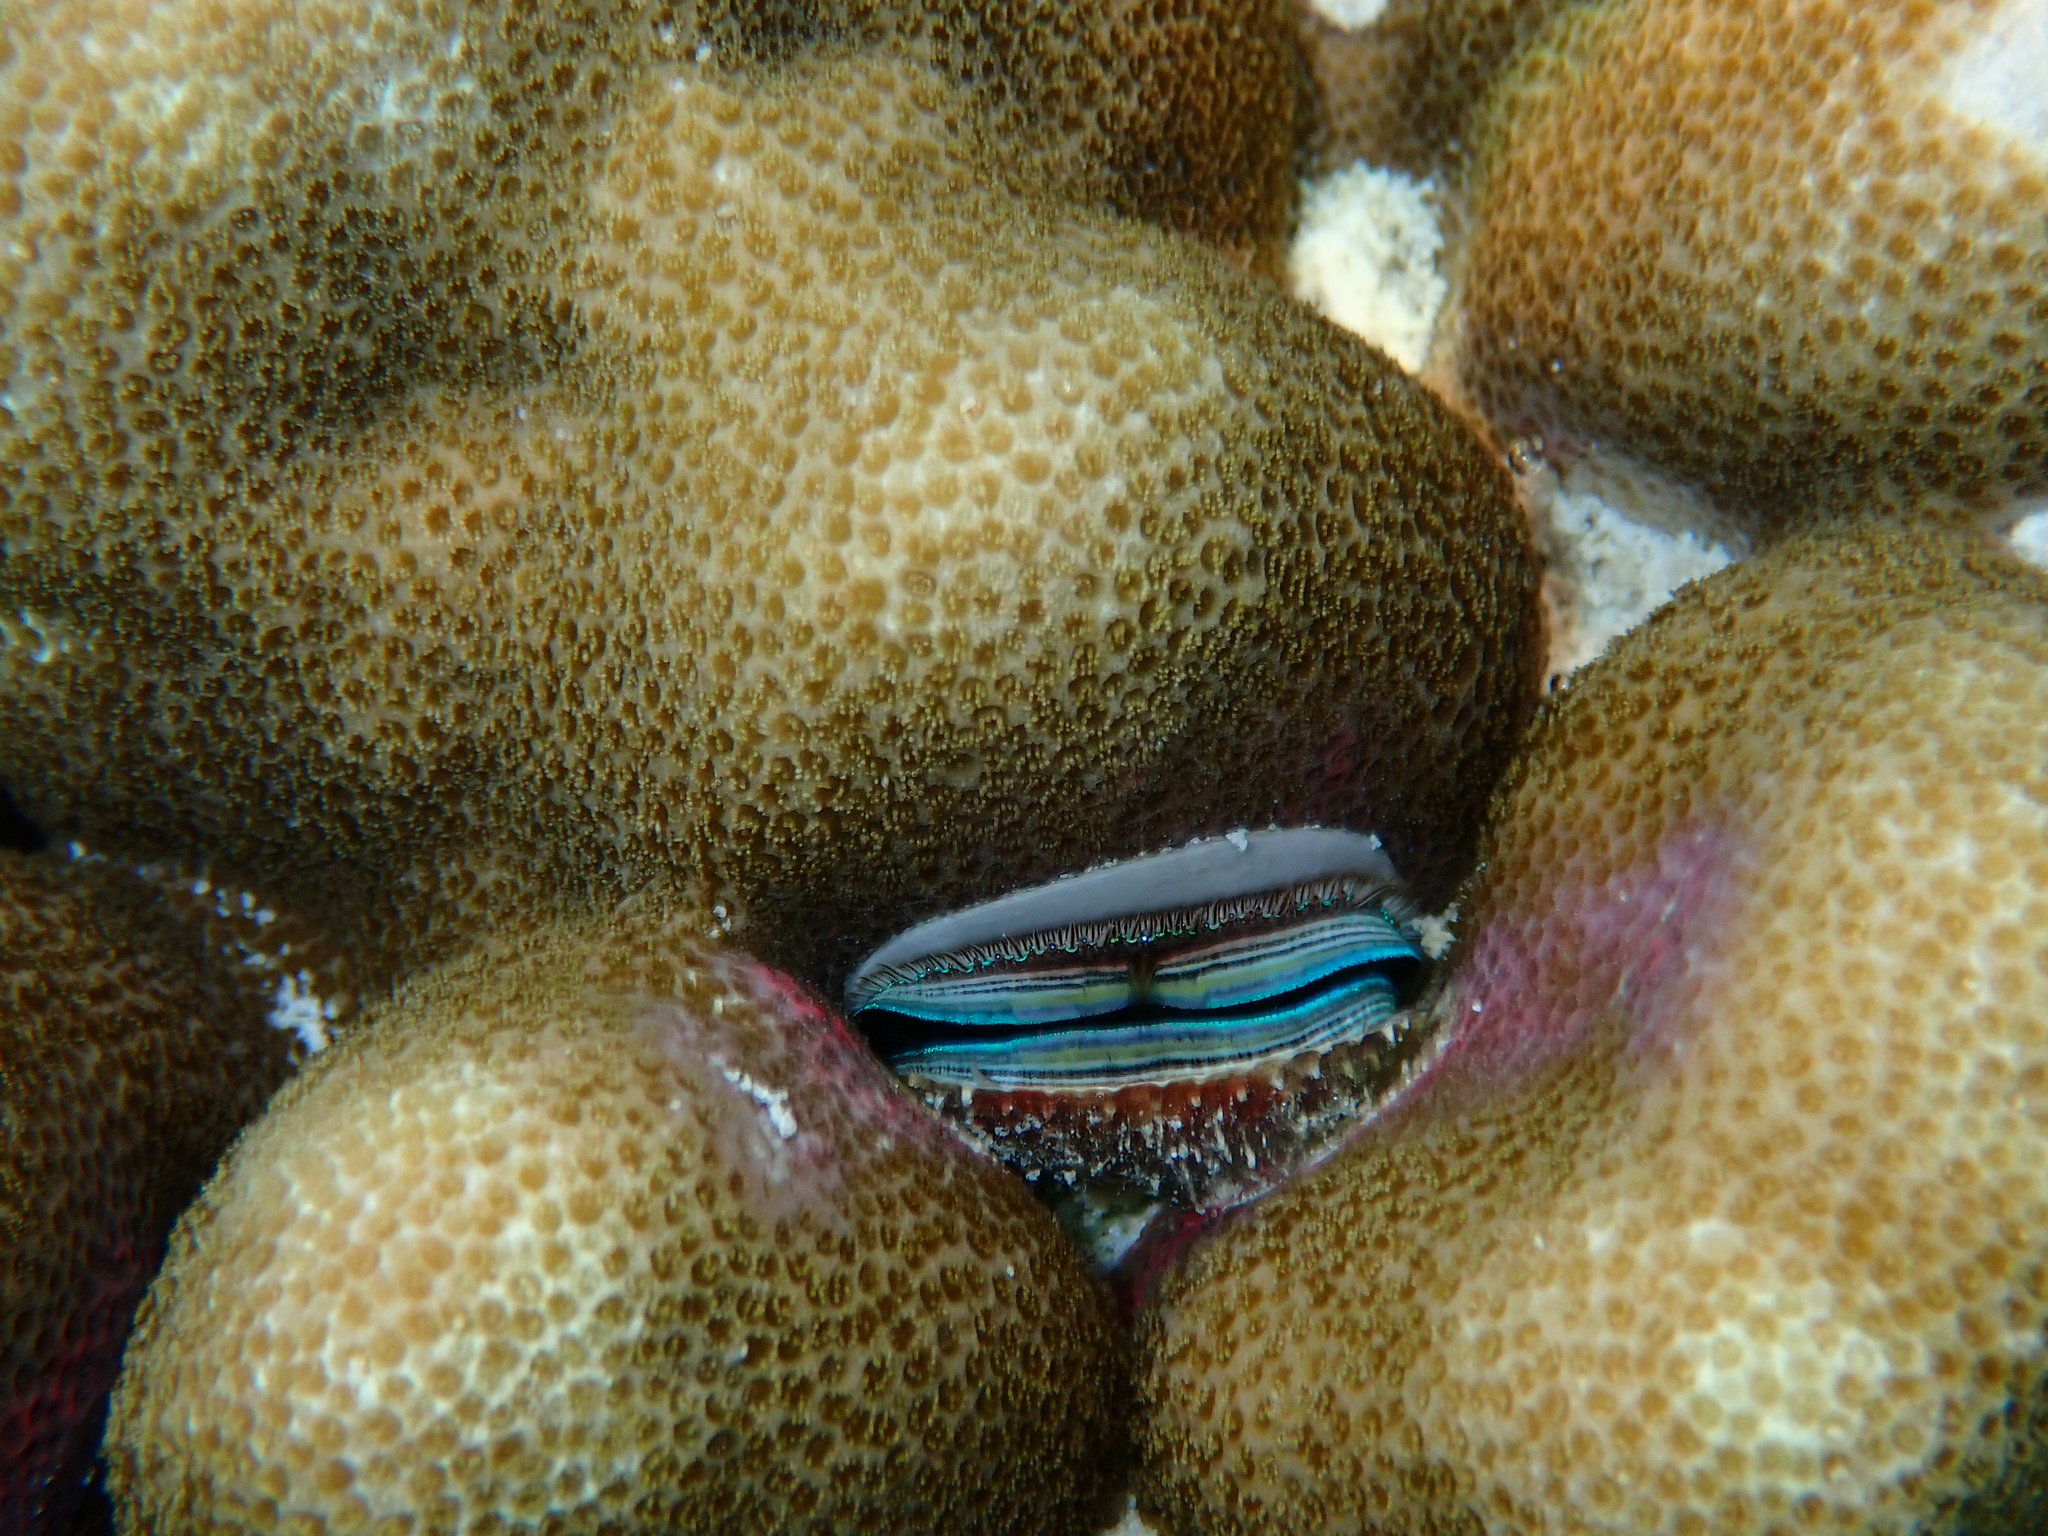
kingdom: Animalia
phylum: Mollusca
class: Bivalvia
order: Pectinida
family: Pectinidae
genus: Pedum
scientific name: Pedum spondyloideum
